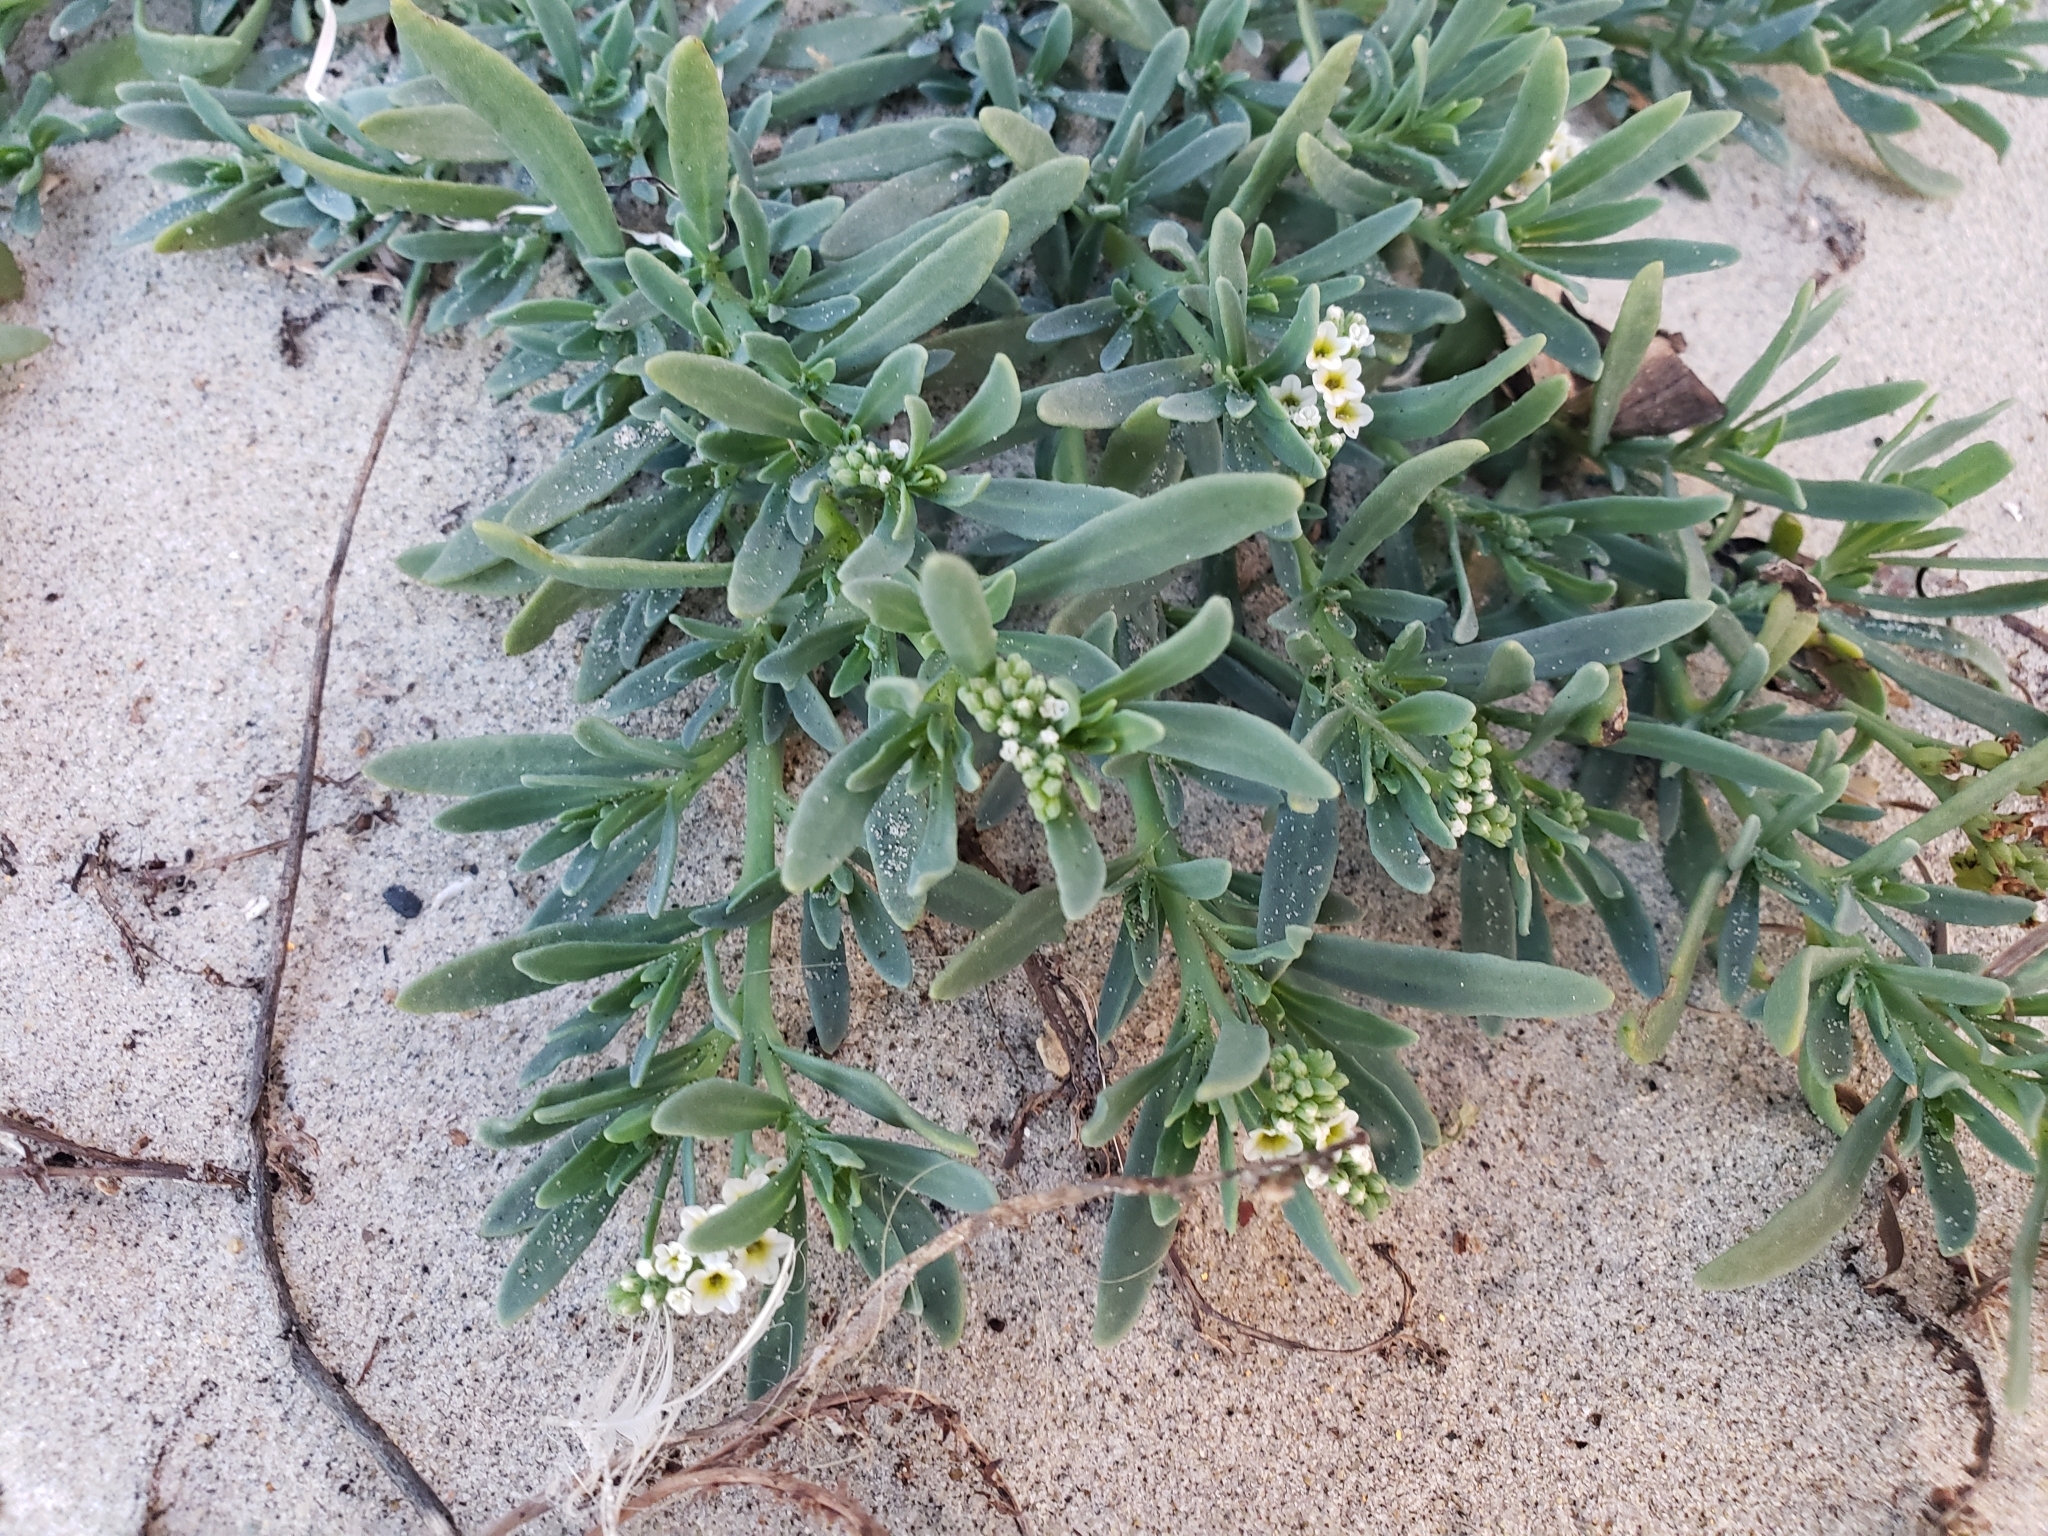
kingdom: Plantae
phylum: Tracheophyta
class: Magnoliopsida
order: Boraginales
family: Heliotropiaceae
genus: Heliotropium
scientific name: Heliotropium curassavicum
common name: Seaside heliotrope
